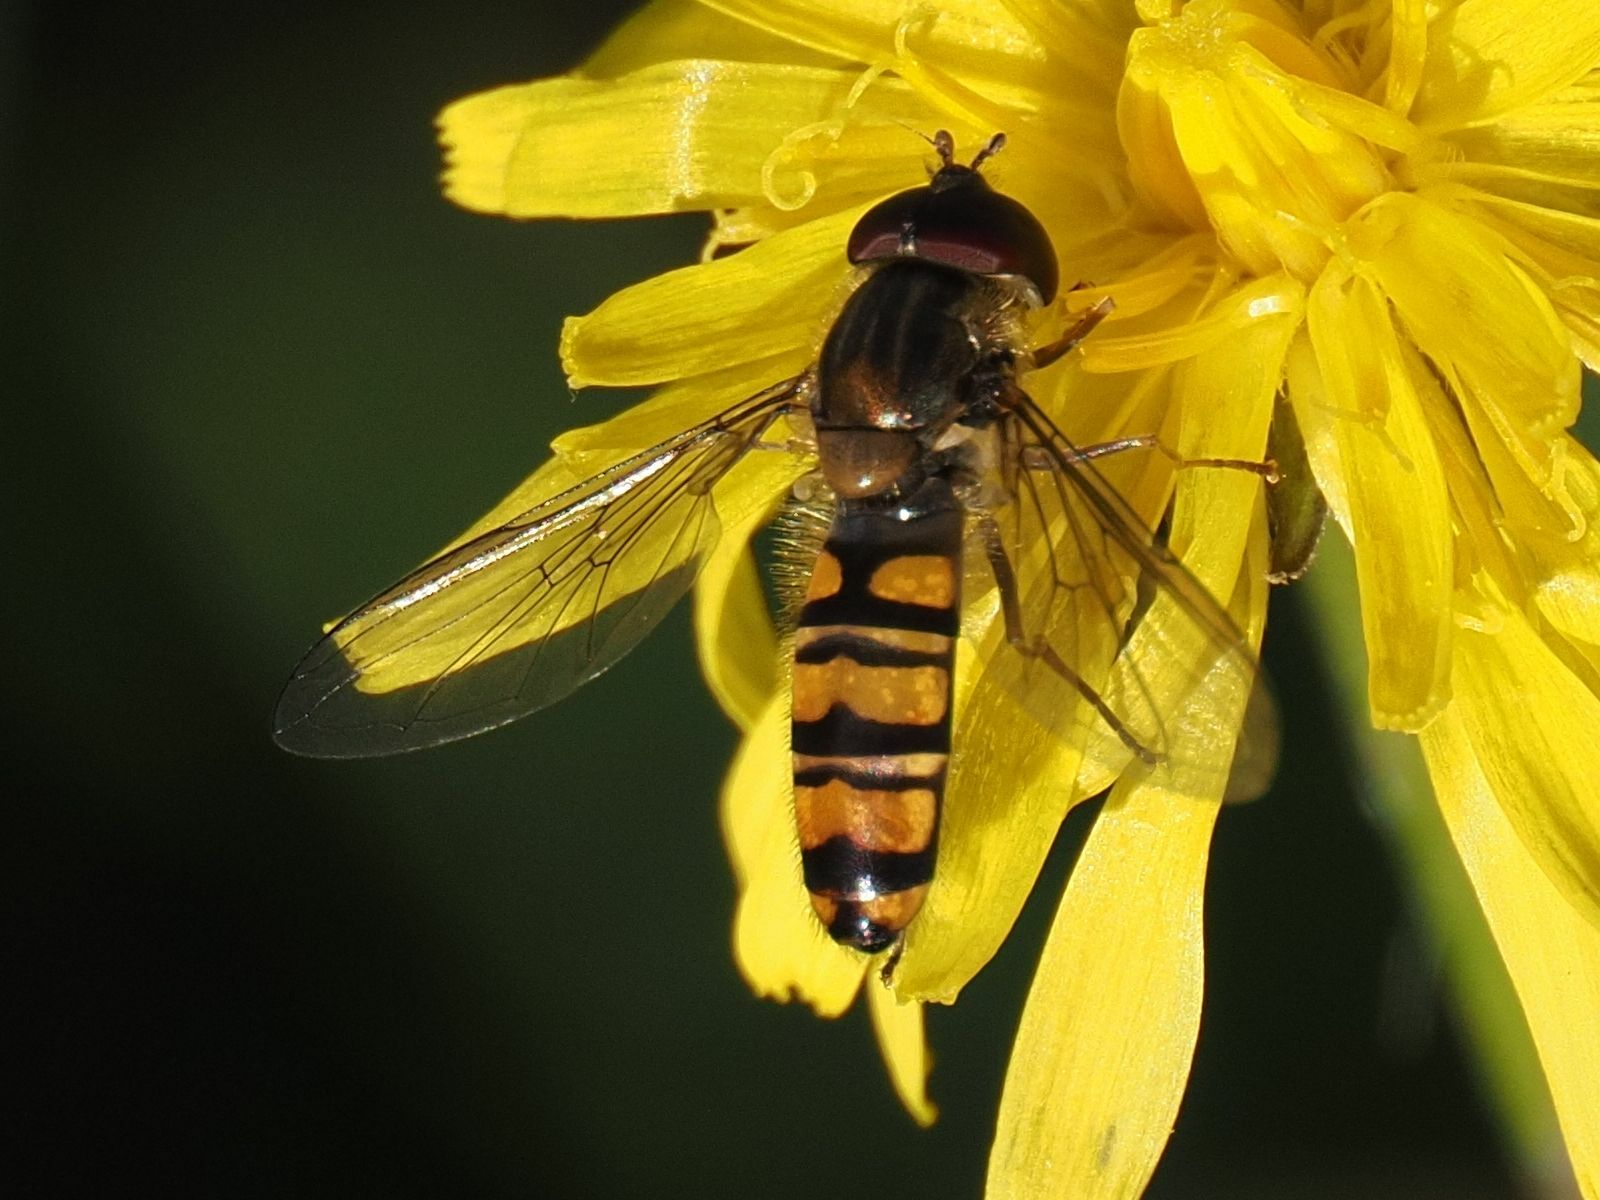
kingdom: Animalia
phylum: Arthropoda
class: Insecta
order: Diptera
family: Syrphidae
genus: Episyrphus
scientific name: Episyrphus balteatus
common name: Marmalade hoverfly
